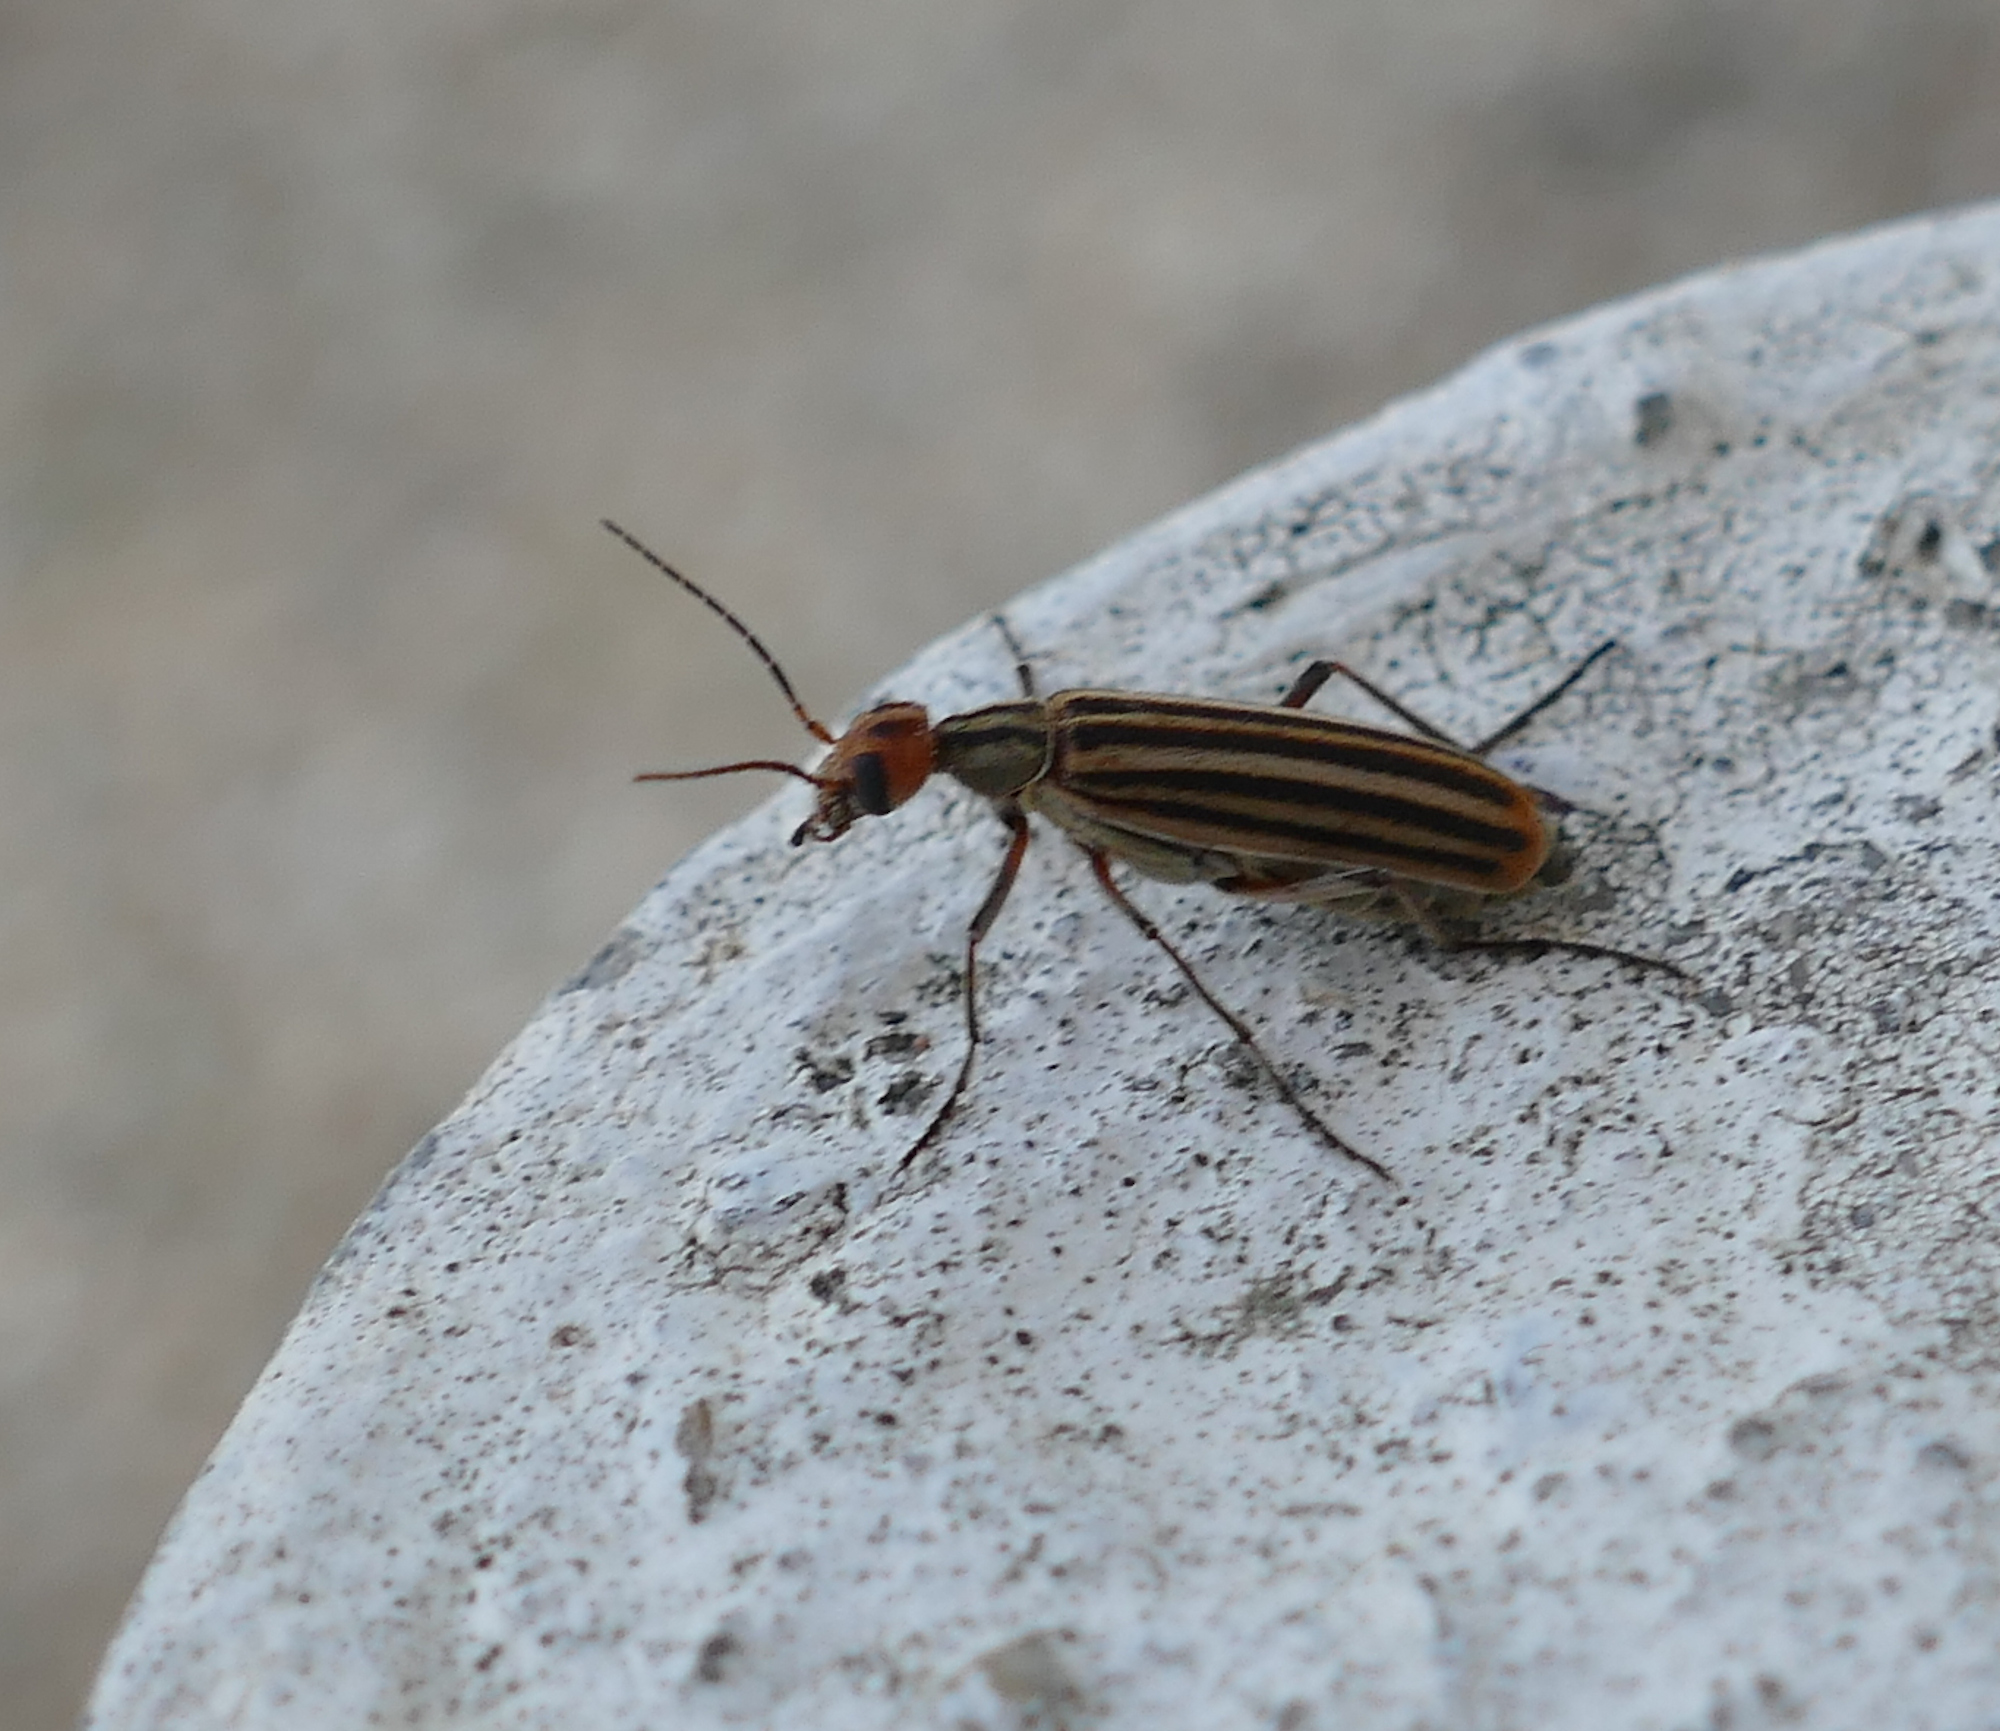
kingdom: Animalia
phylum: Arthropoda
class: Insecta
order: Coleoptera
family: Meloidae
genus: Epicauta
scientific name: Epicauta vittata
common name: Old-fashioned potato beetle
